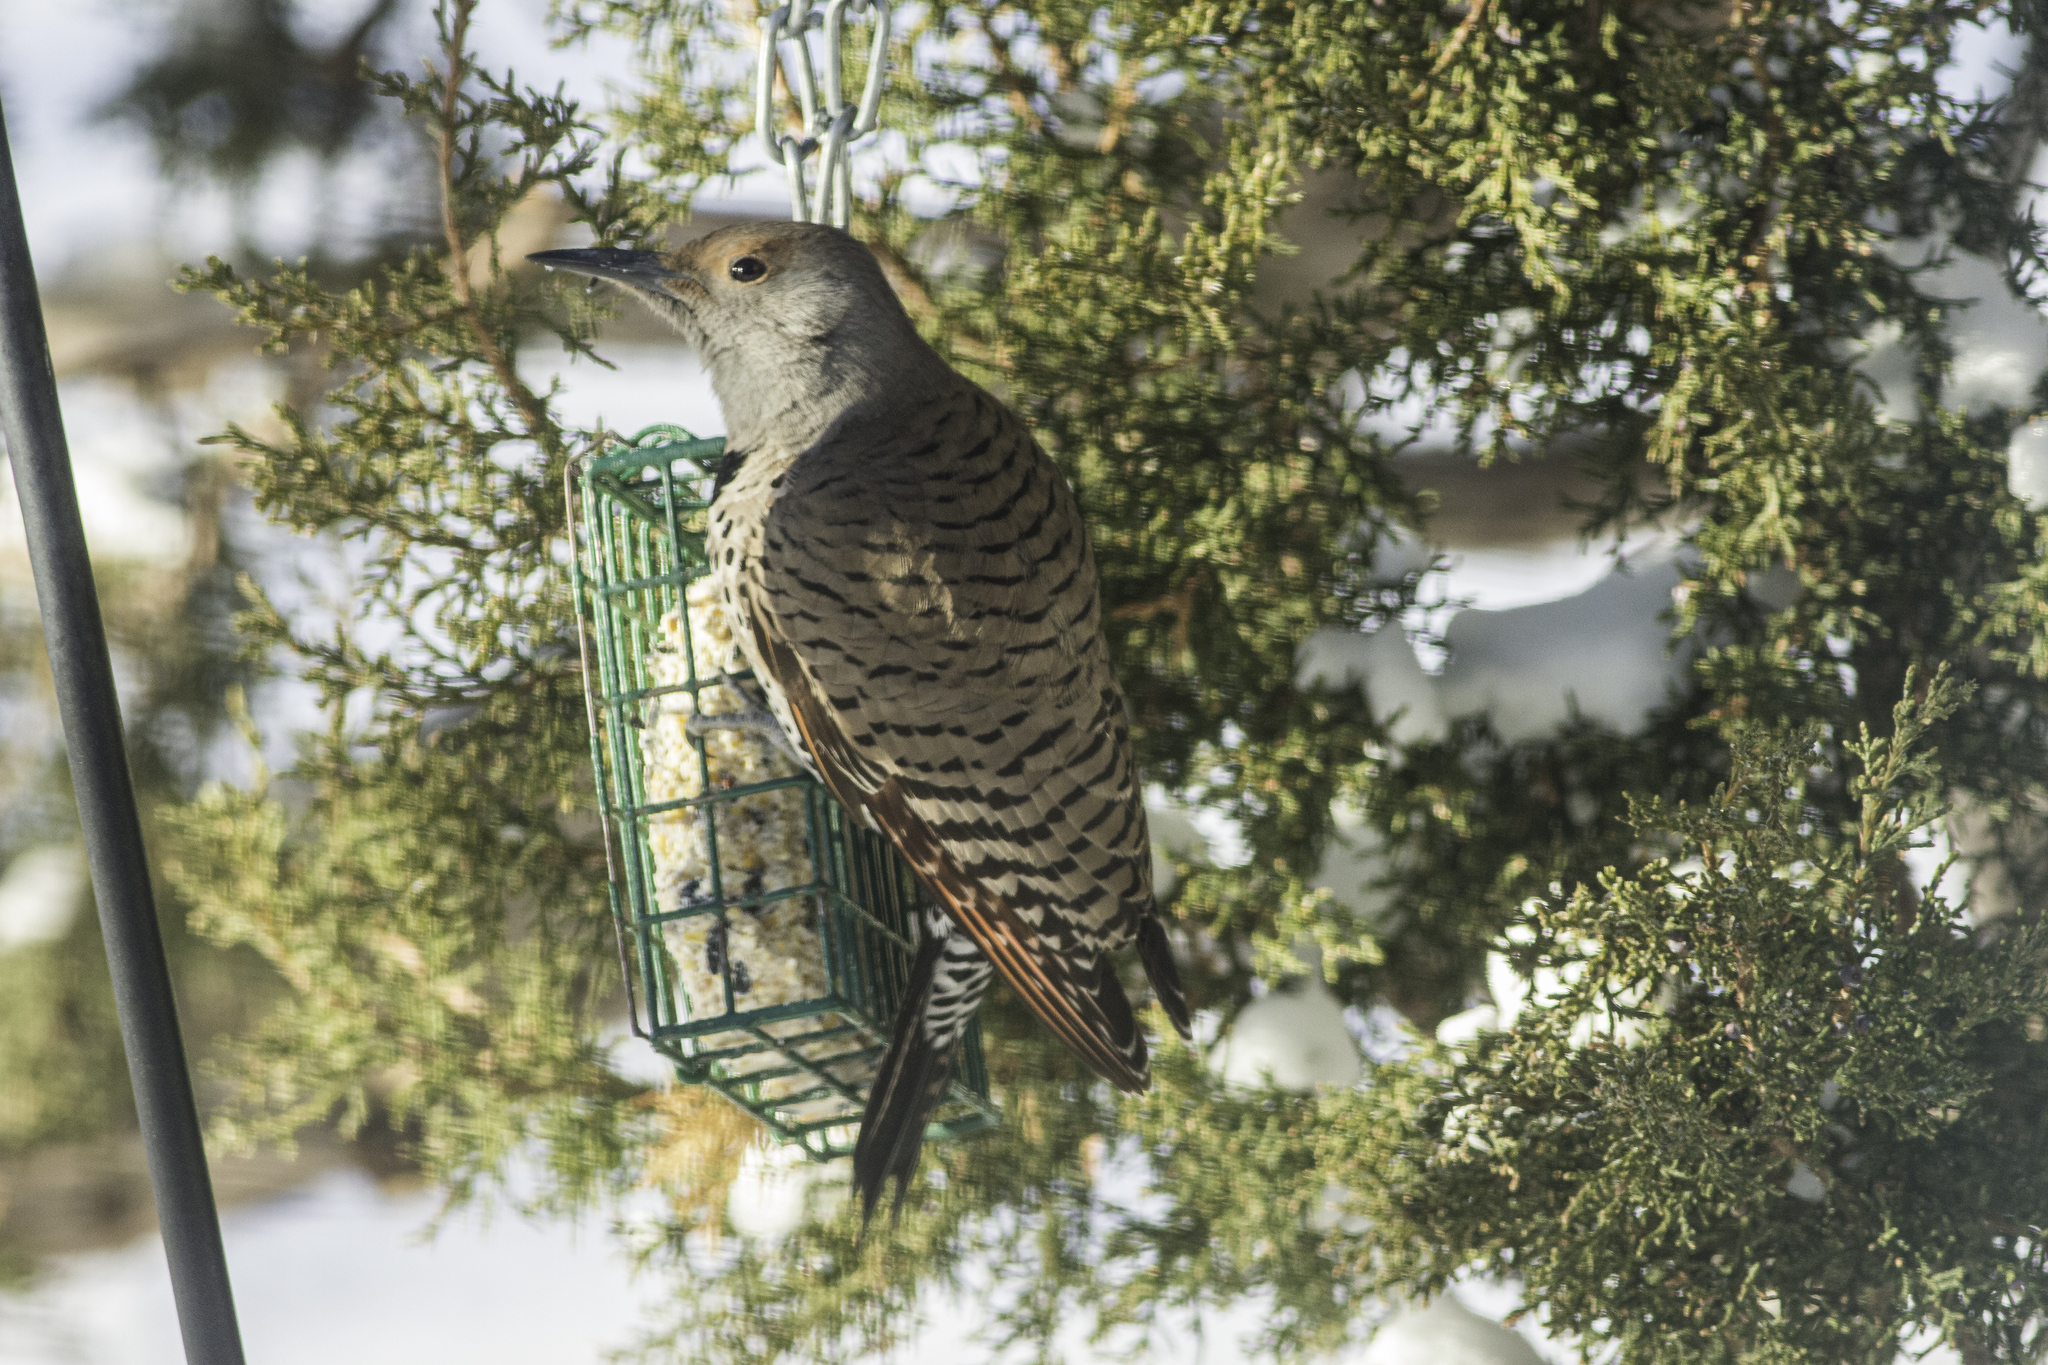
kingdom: Animalia
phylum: Chordata
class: Aves
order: Piciformes
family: Picidae
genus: Colaptes
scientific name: Colaptes auratus
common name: Northern flicker
